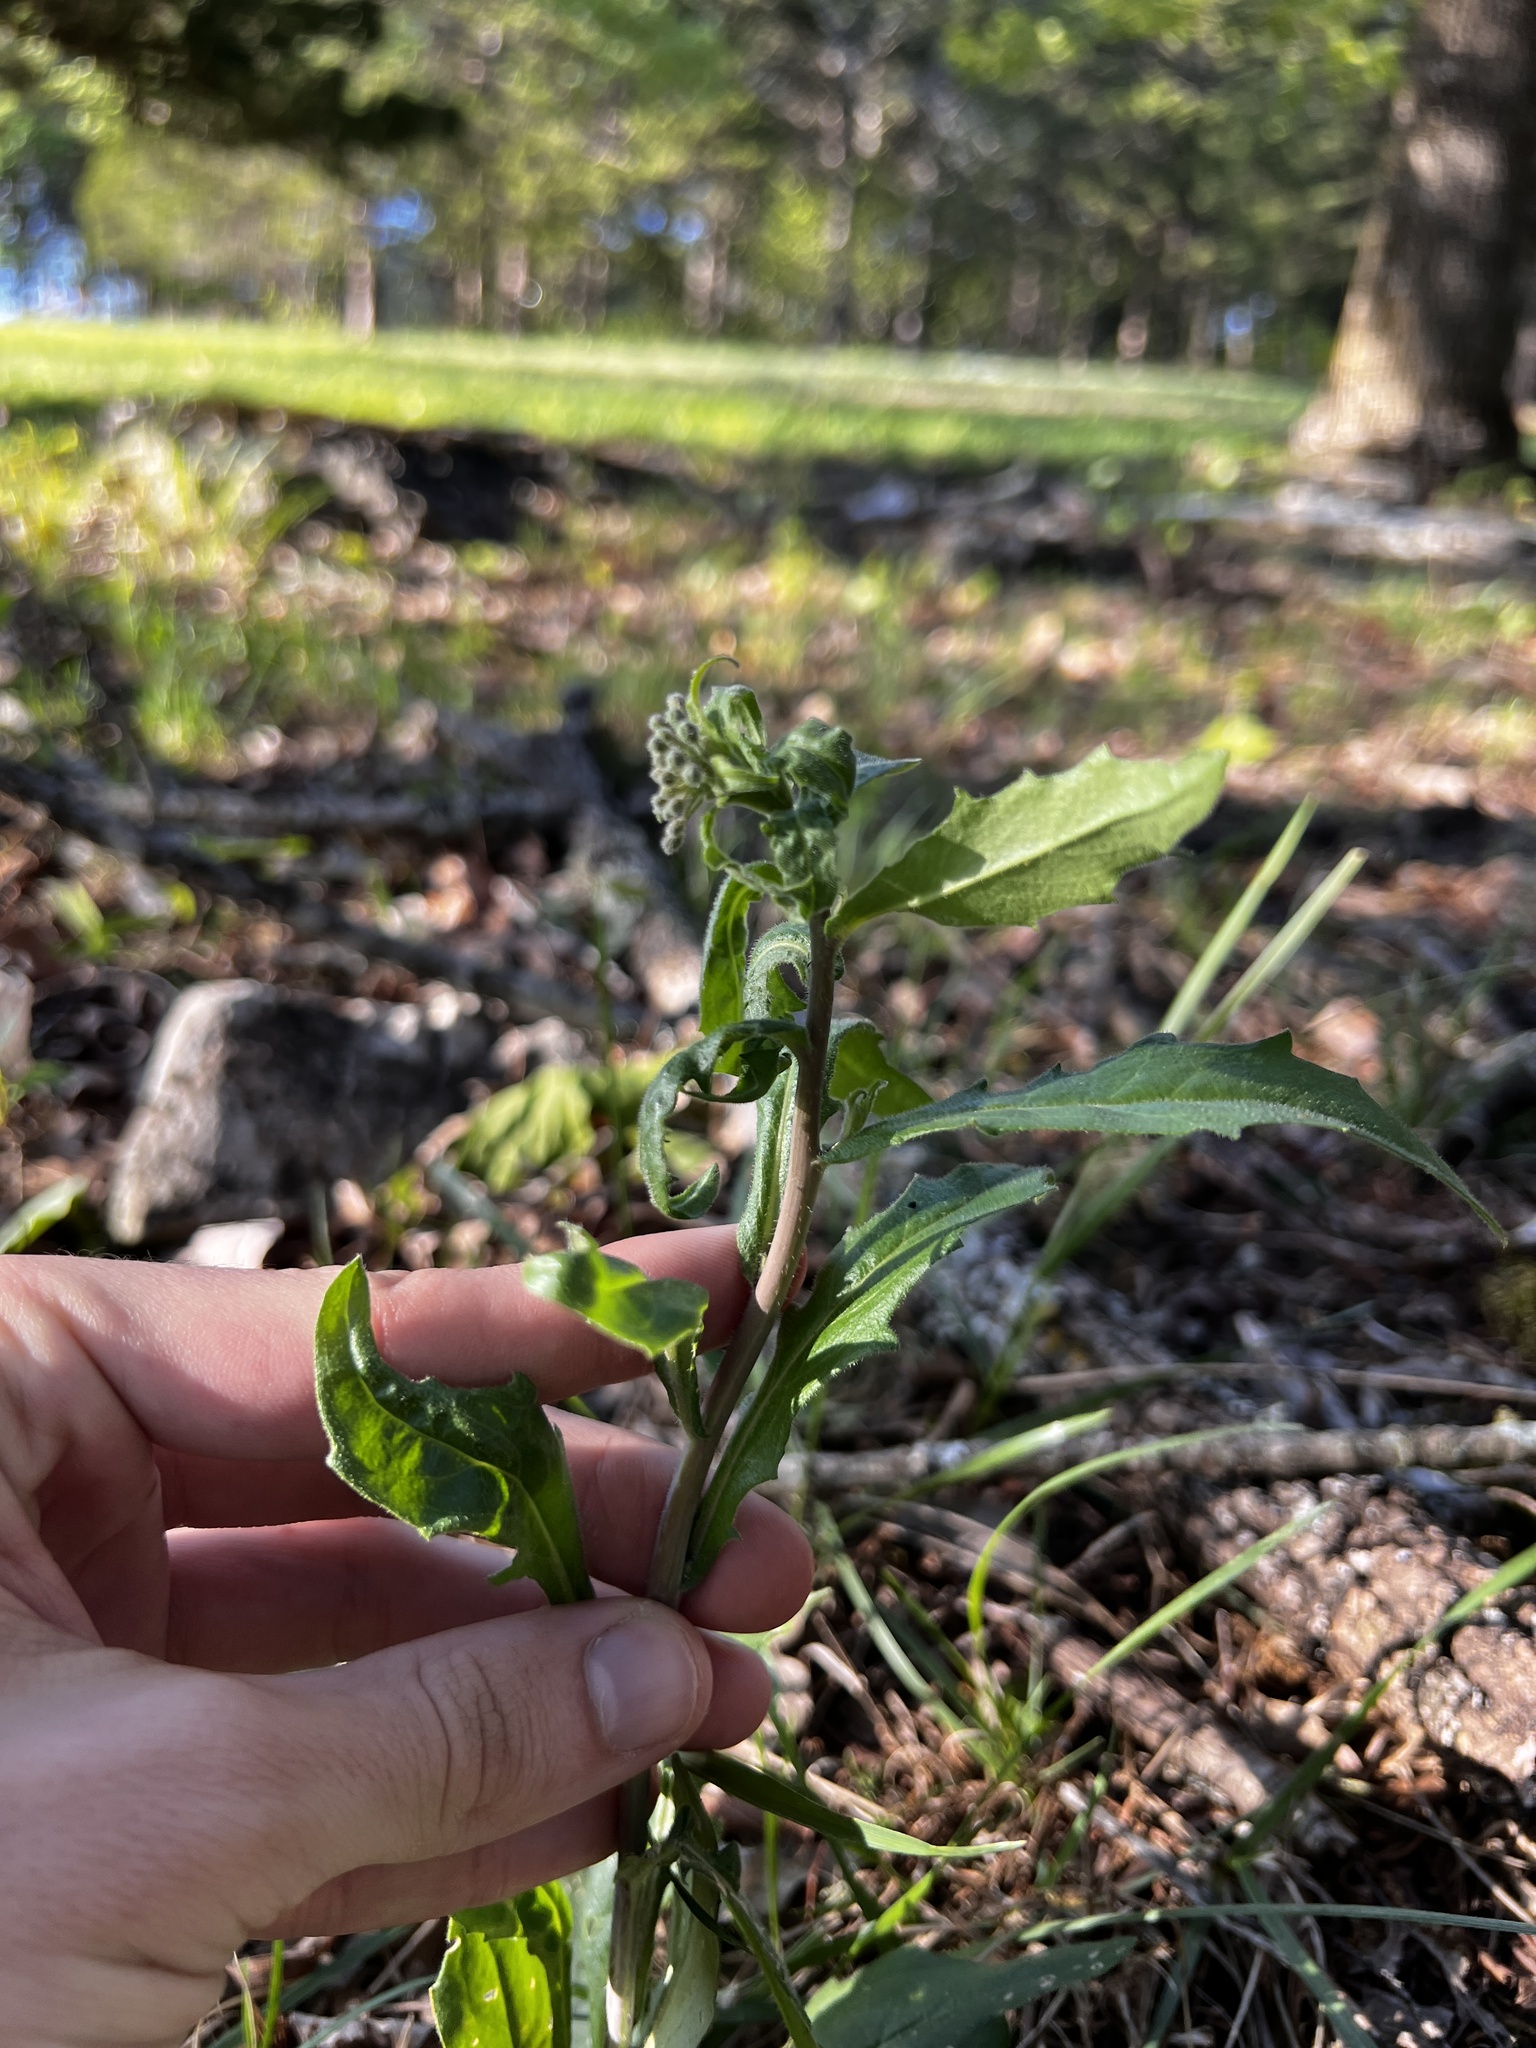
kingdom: Plantae
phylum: Tracheophyta
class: Magnoliopsida
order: Brassicales
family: Brassicaceae
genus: Borodinia
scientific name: Borodinia canadensis
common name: Sicklepod
